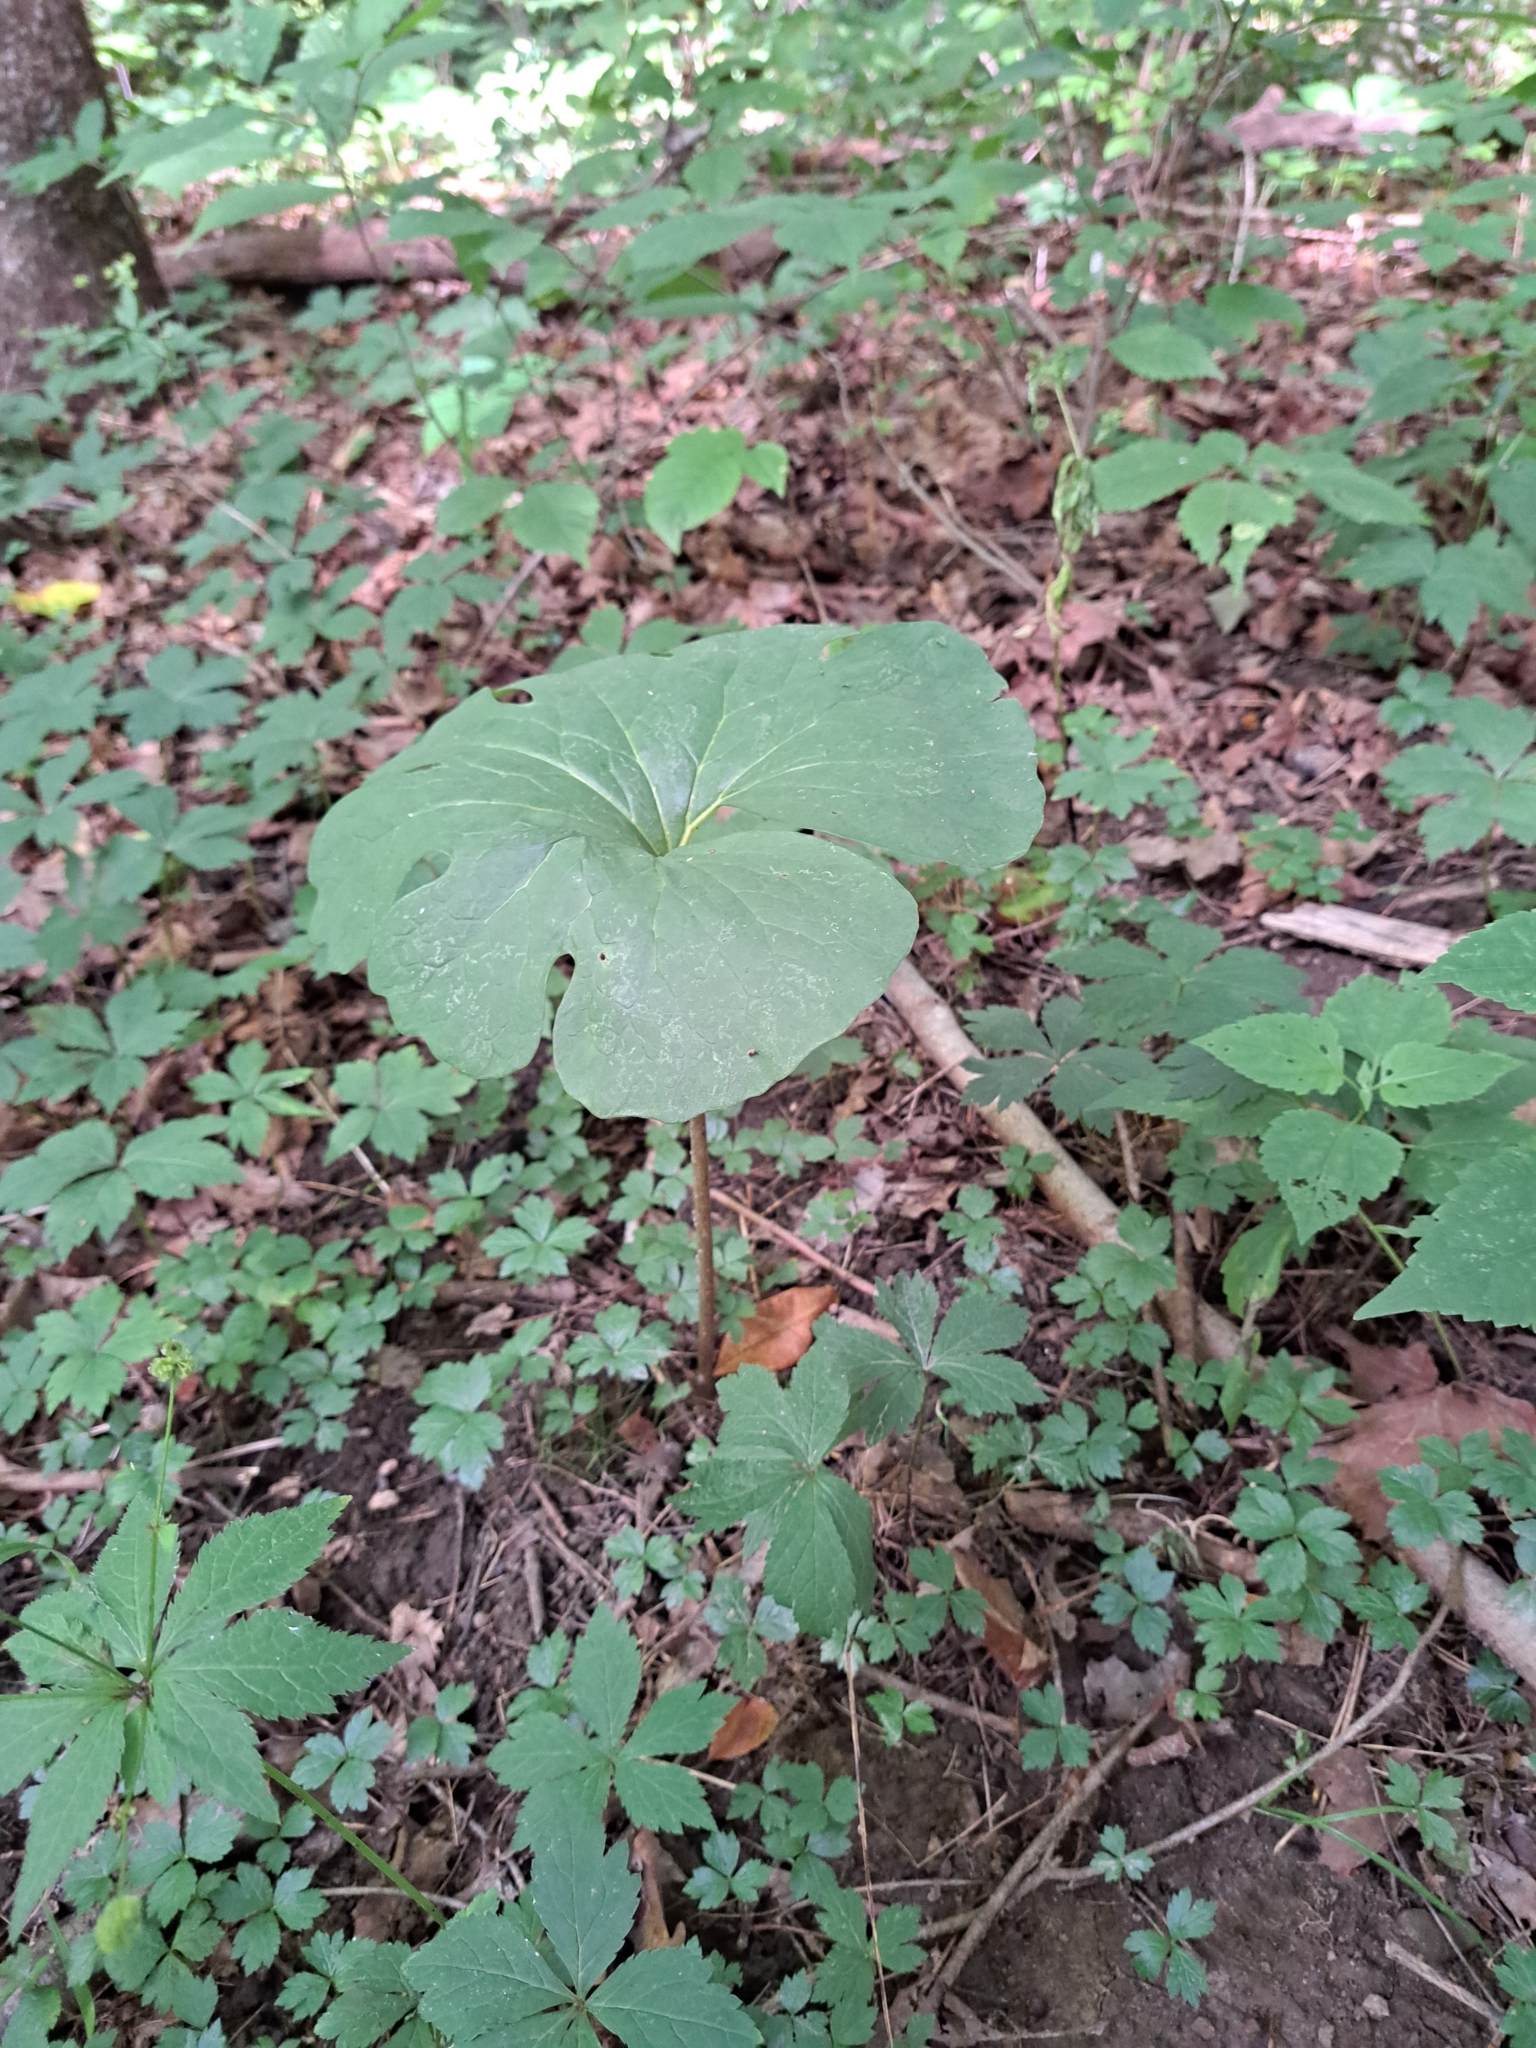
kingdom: Plantae
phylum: Tracheophyta
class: Magnoliopsida
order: Ranunculales
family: Papaveraceae
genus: Sanguinaria
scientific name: Sanguinaria canadensis
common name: Bloodroot
